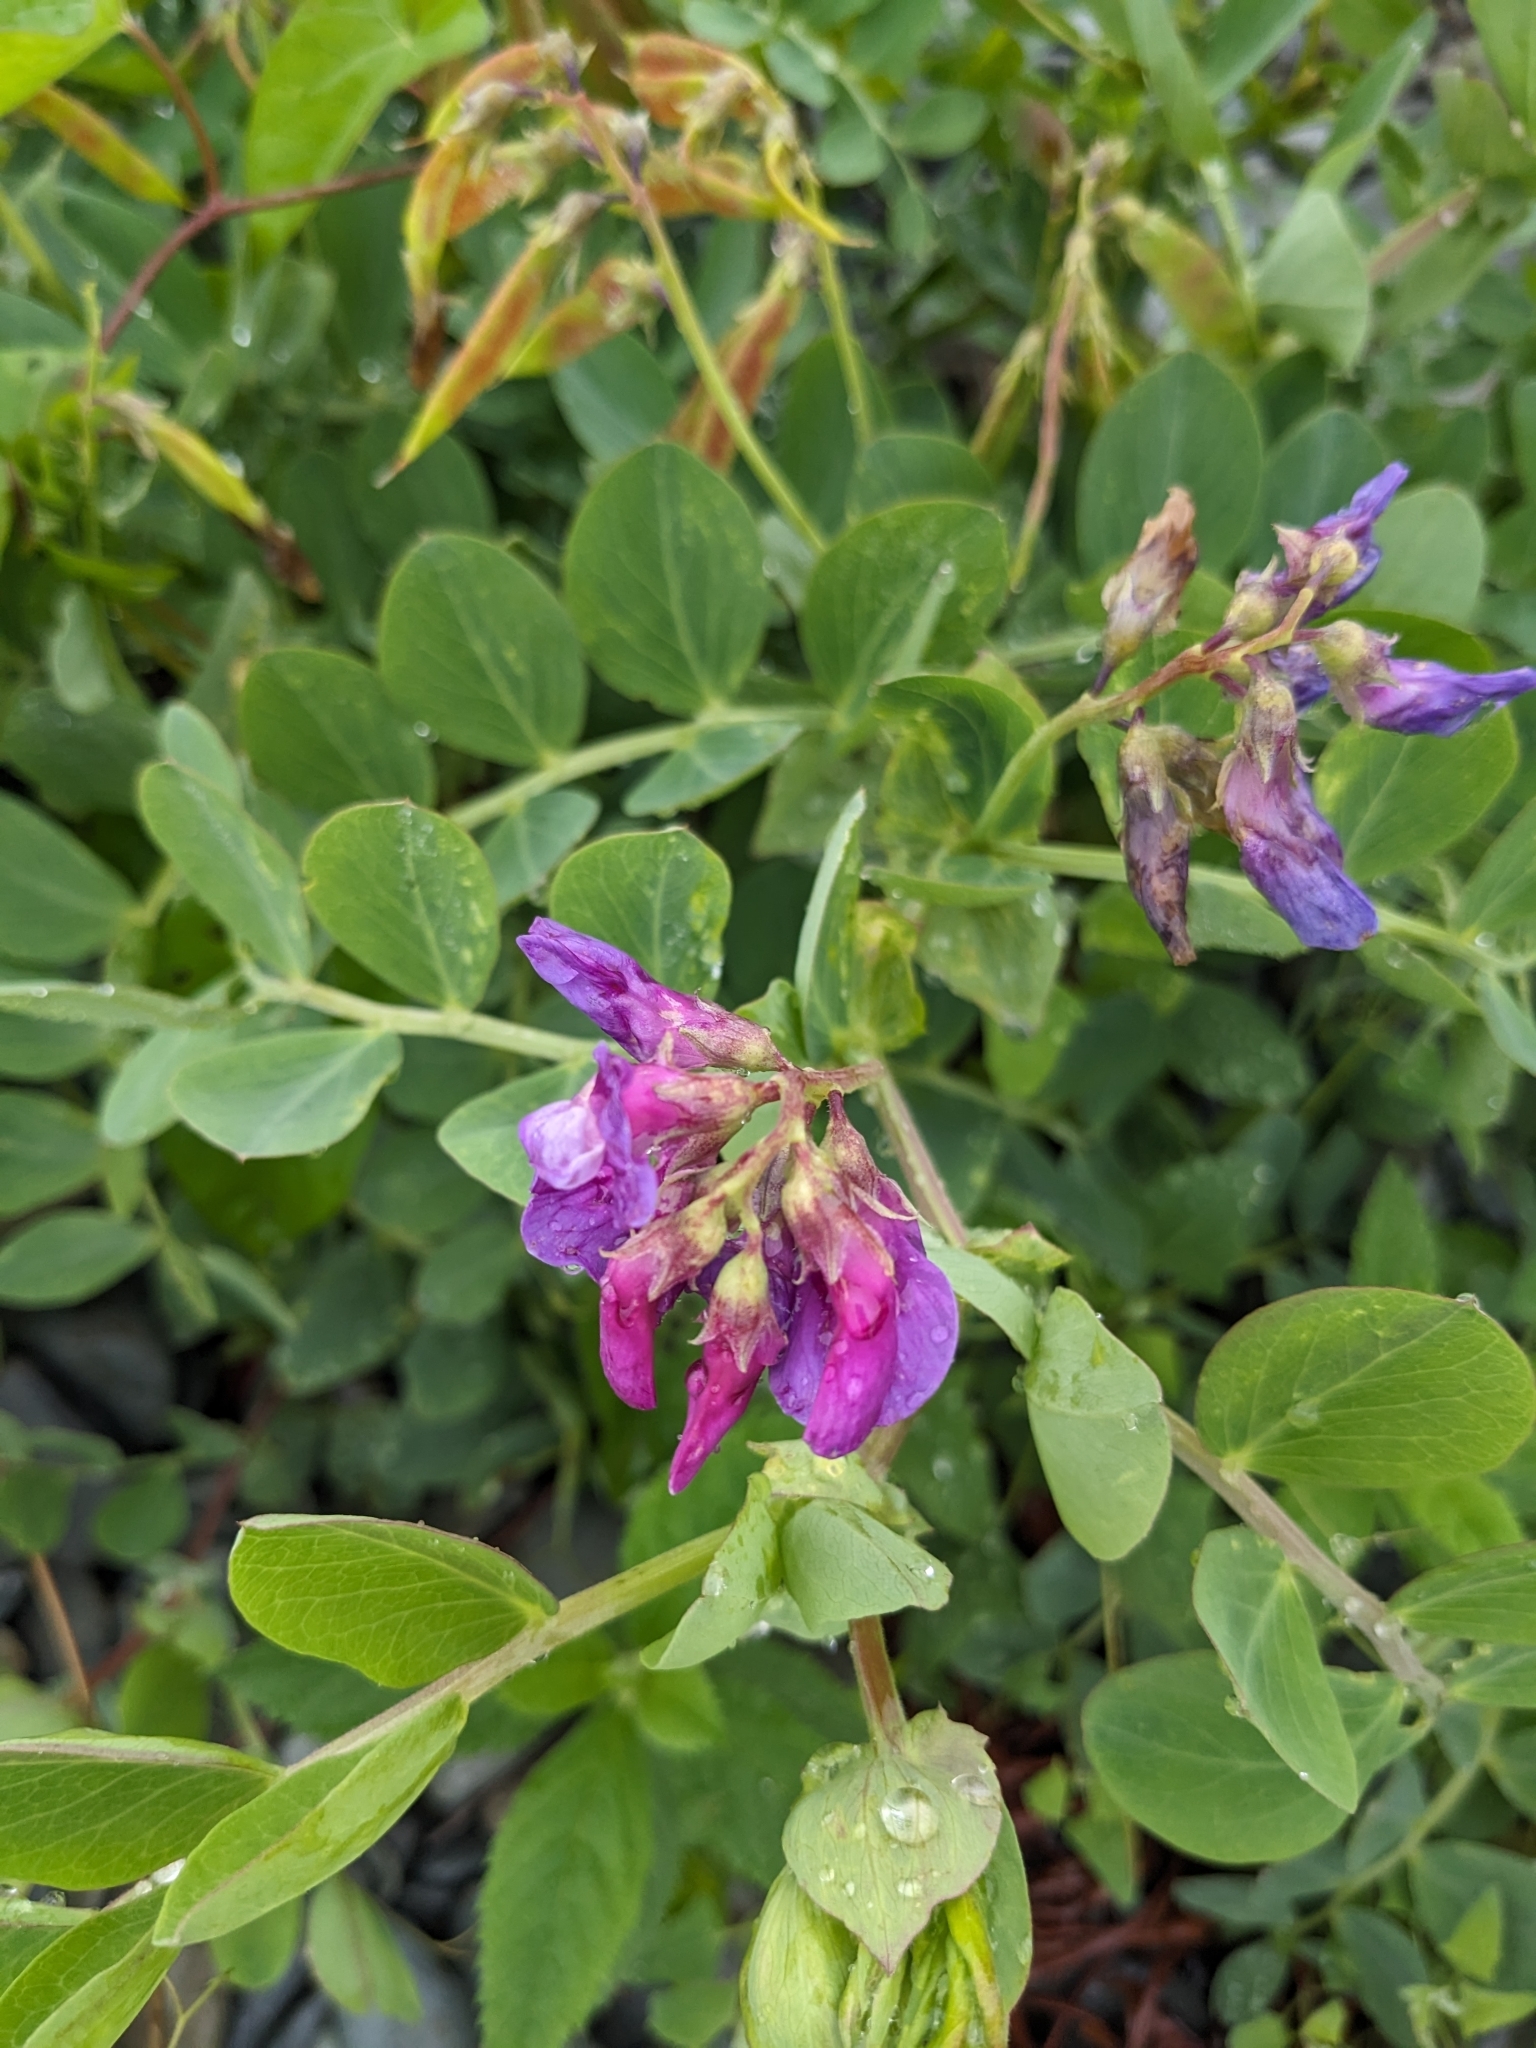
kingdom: Plantae
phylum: Tracheophyta
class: Magnoliopsida
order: Fabales
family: Fabaceae
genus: Lathyrus
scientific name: Lathyrus japonicus
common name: Sea pea
